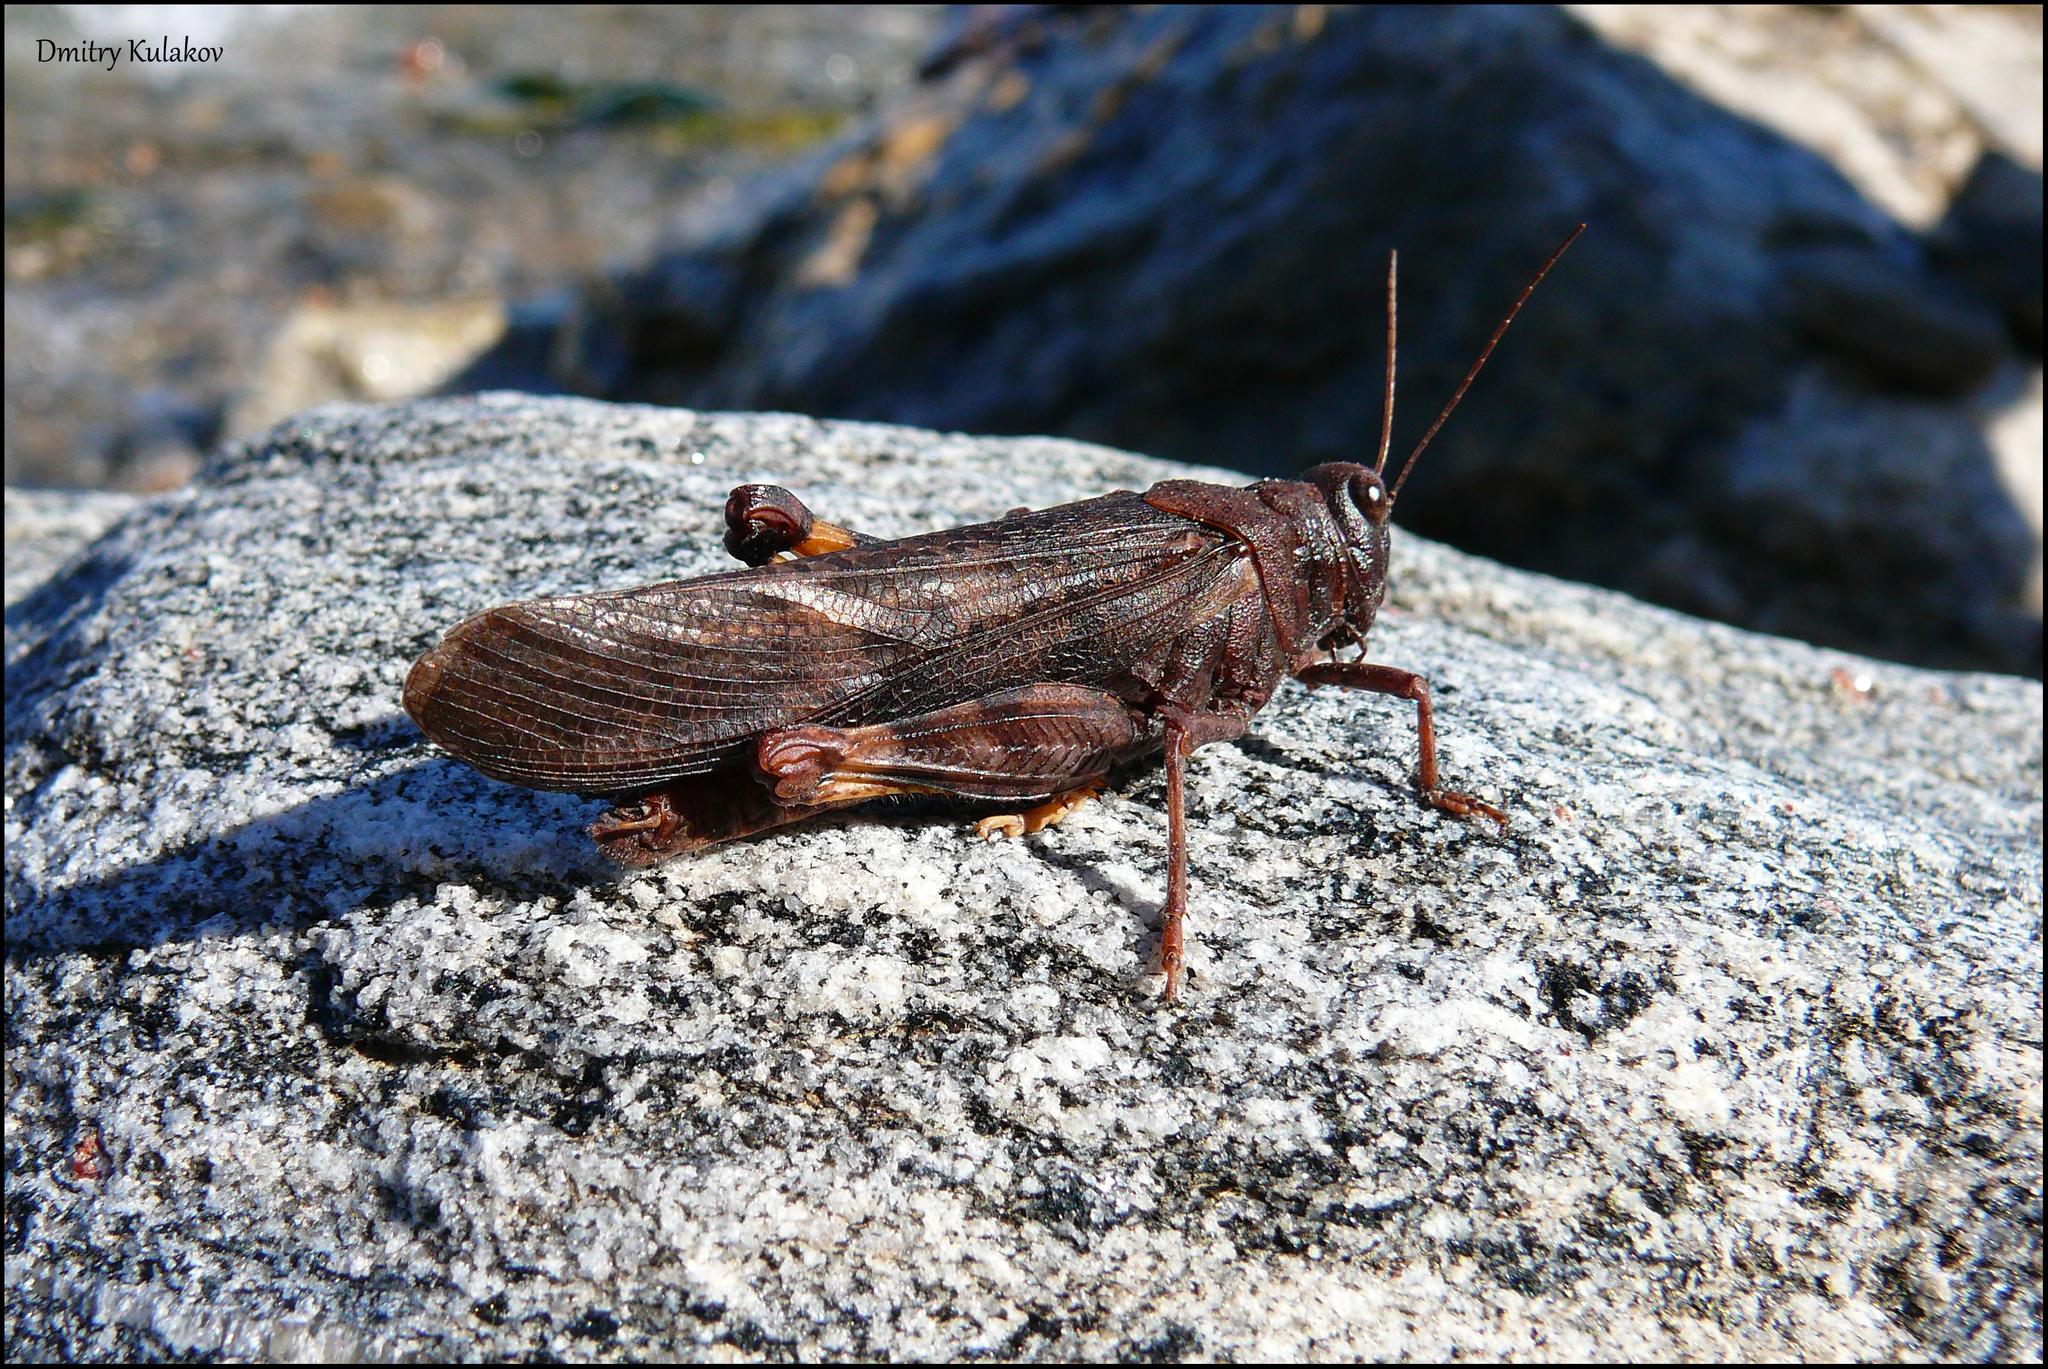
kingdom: Animalia
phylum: Arthropoda
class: Insecta
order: Orthoptera
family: Acrididae
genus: Bryodemella
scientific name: Bryodemella tuberculata
